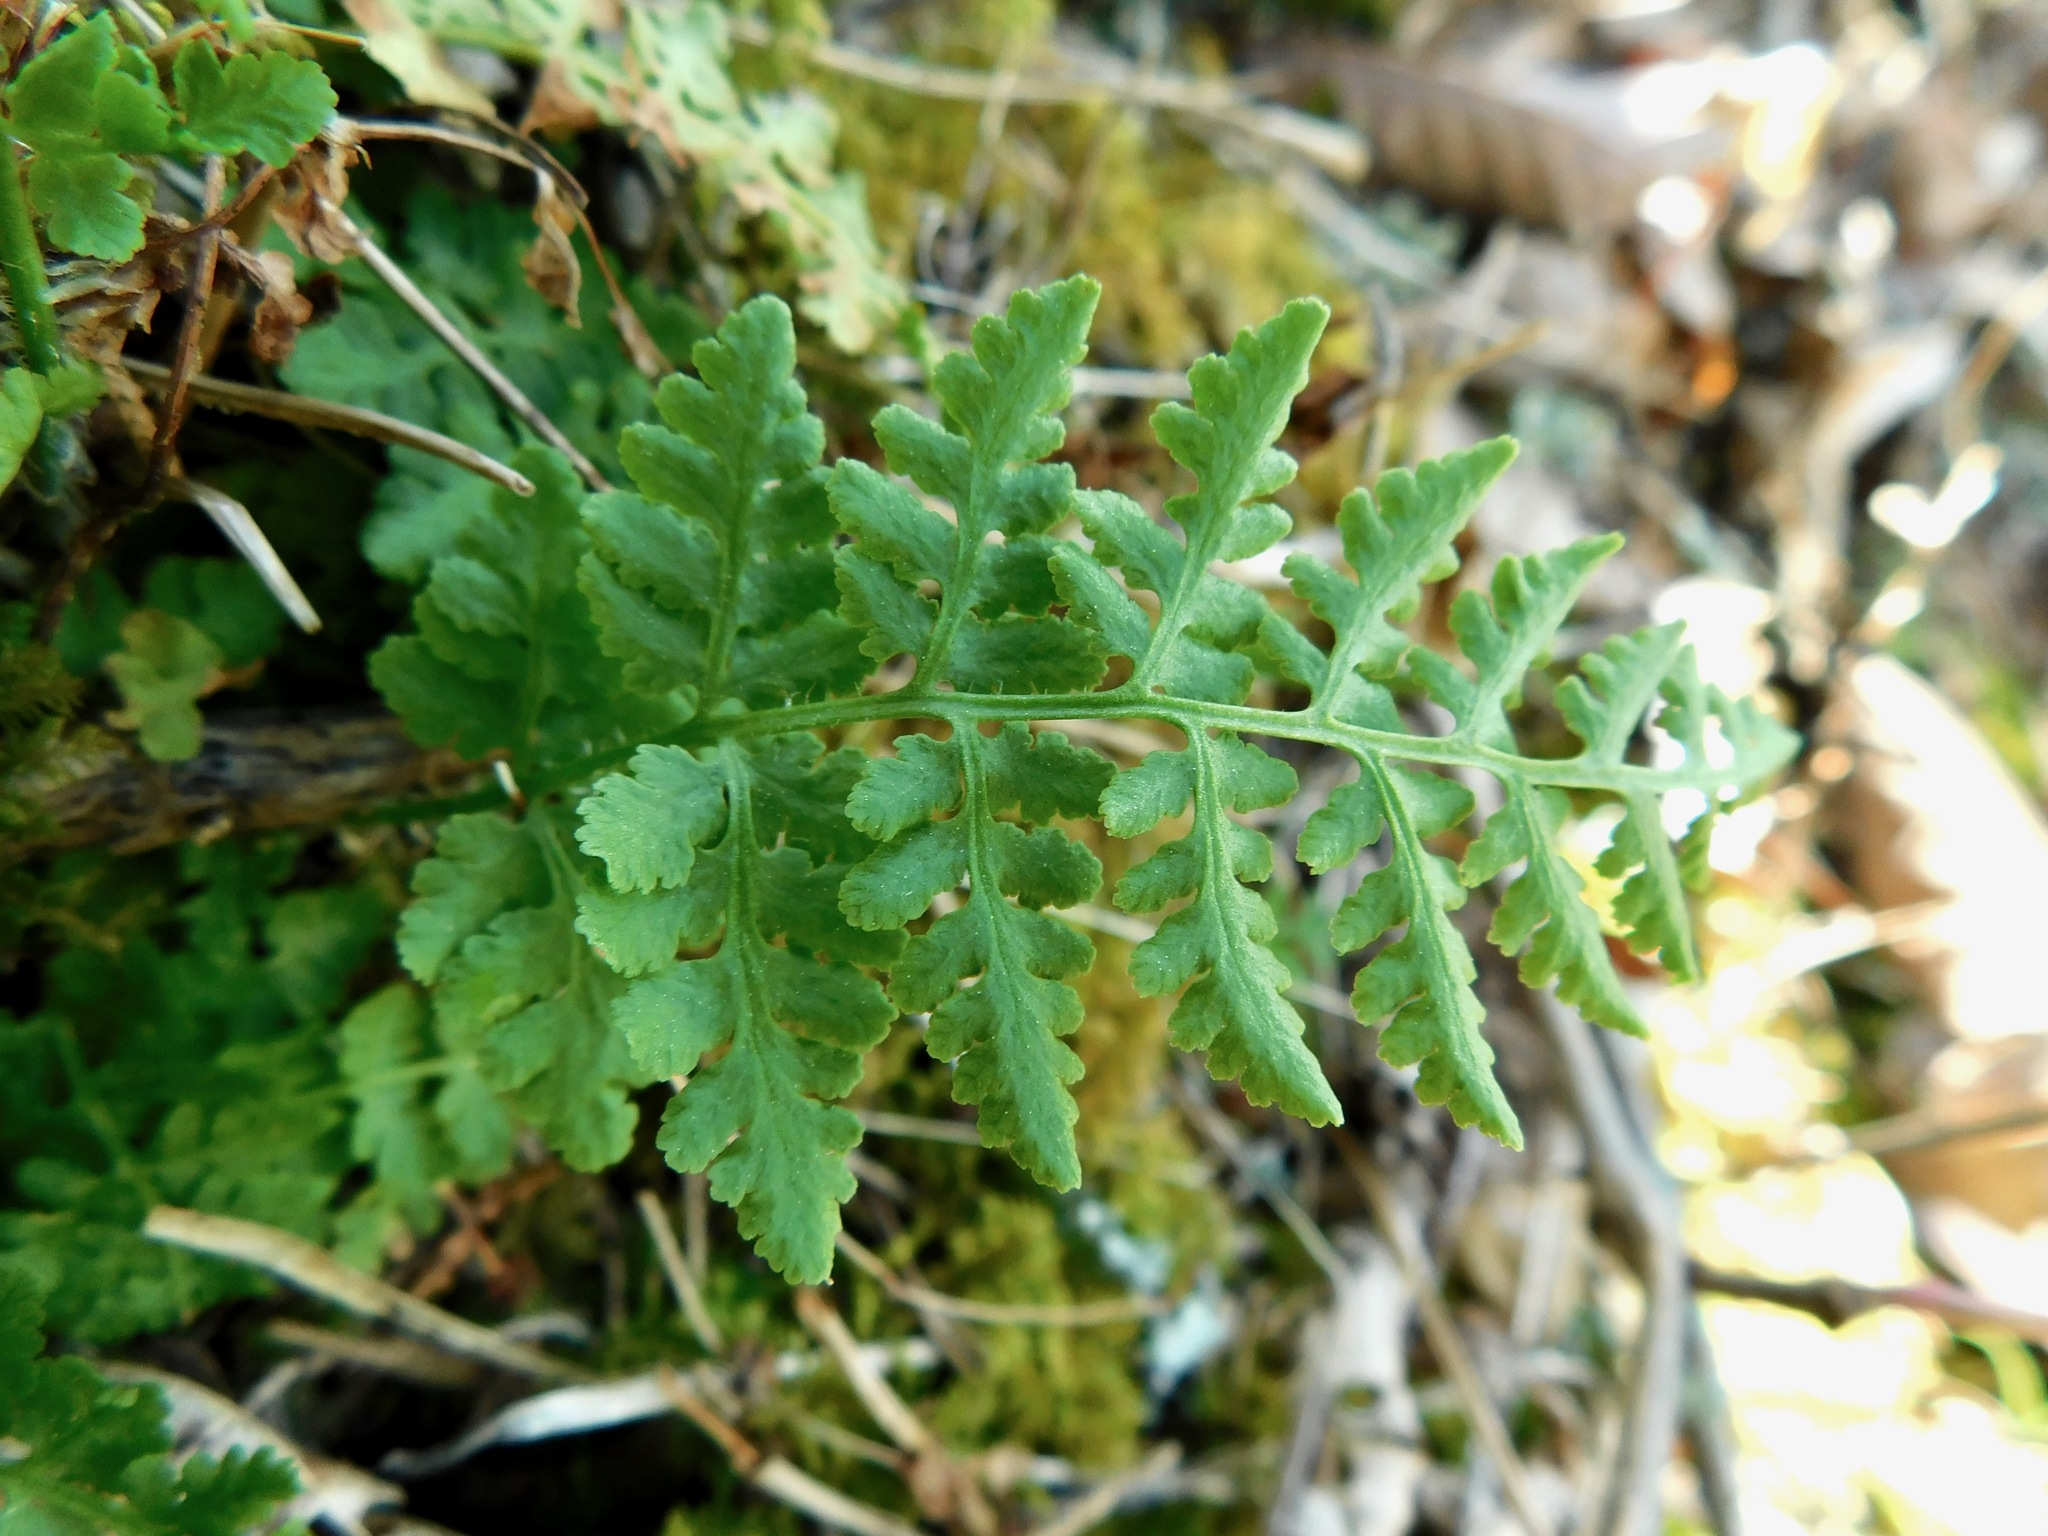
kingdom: Plantae
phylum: Tracheophyta
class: Polypodiopsida
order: Polypodiales
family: Woodsiaceae
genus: Physematium
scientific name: Physematium obtusum
